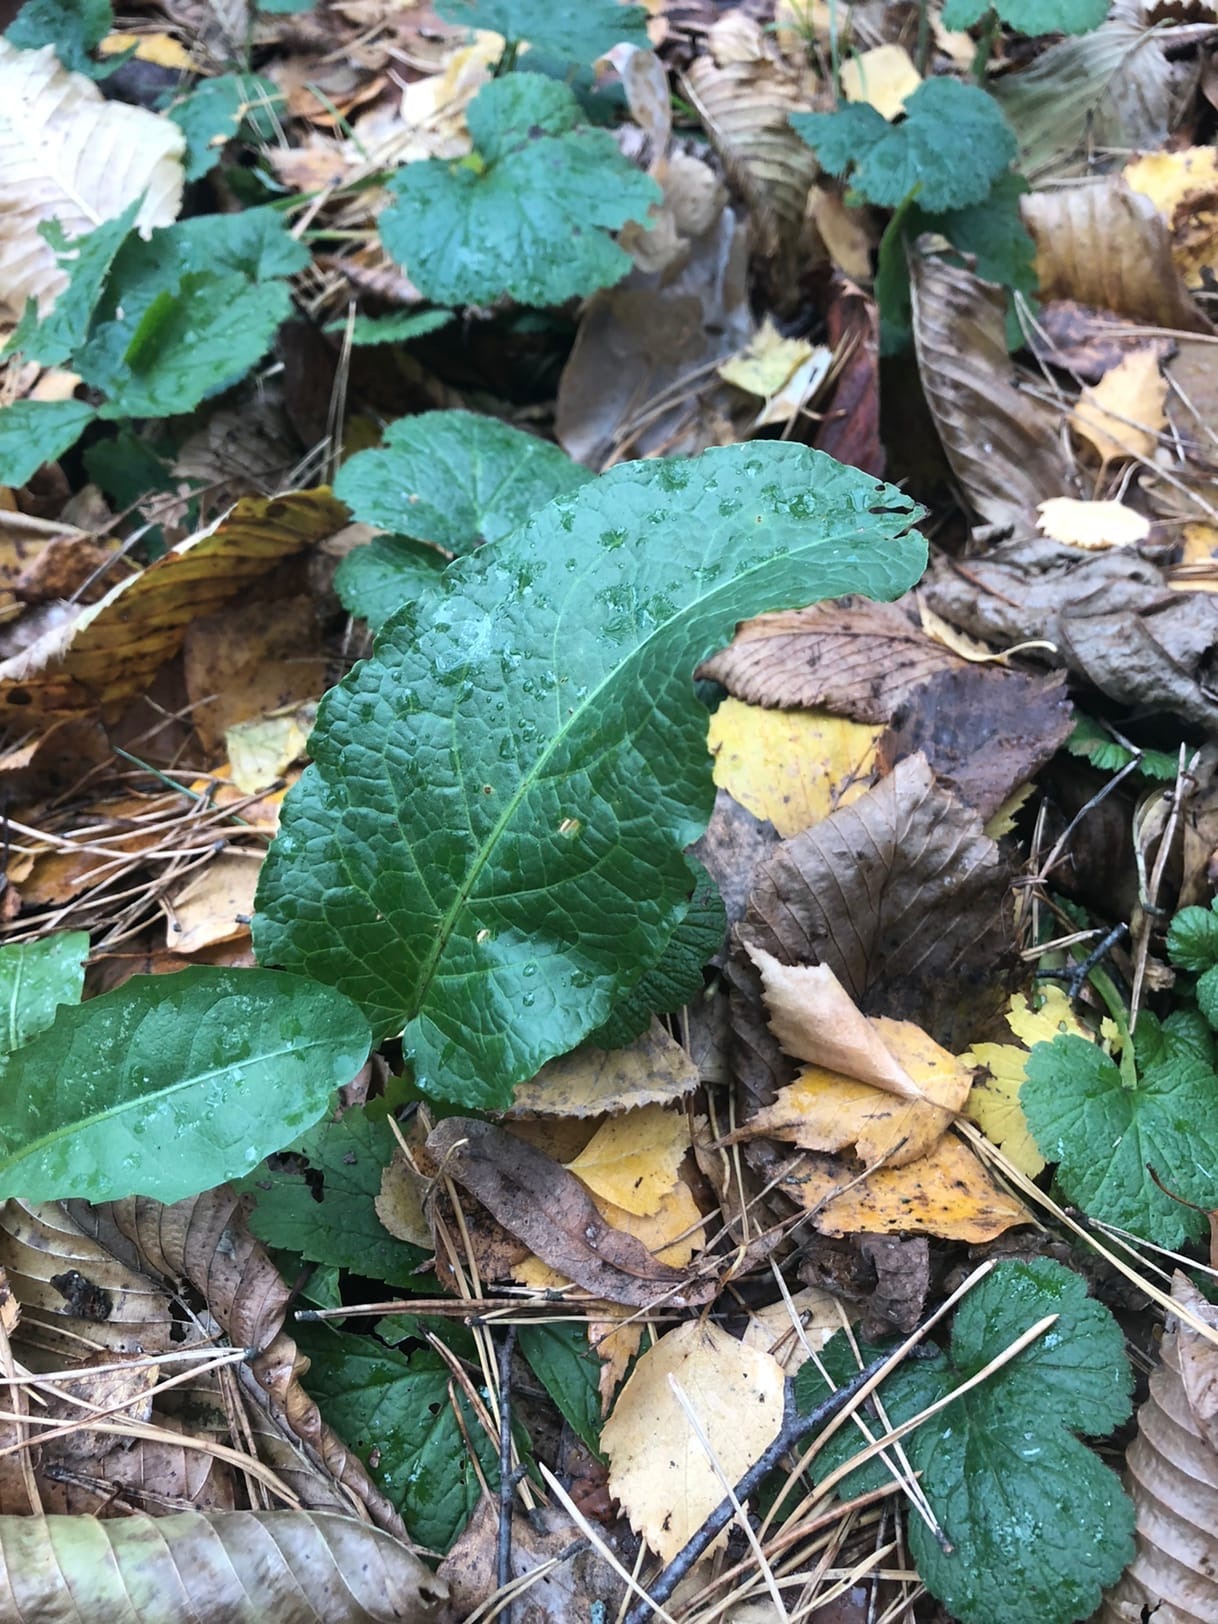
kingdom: Plantae
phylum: Tracheophyta
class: Magnoliopsida
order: Caryophyllales
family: Polygonaceae
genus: Rumex
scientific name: Rumex obtusifolius
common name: Bitter dock
